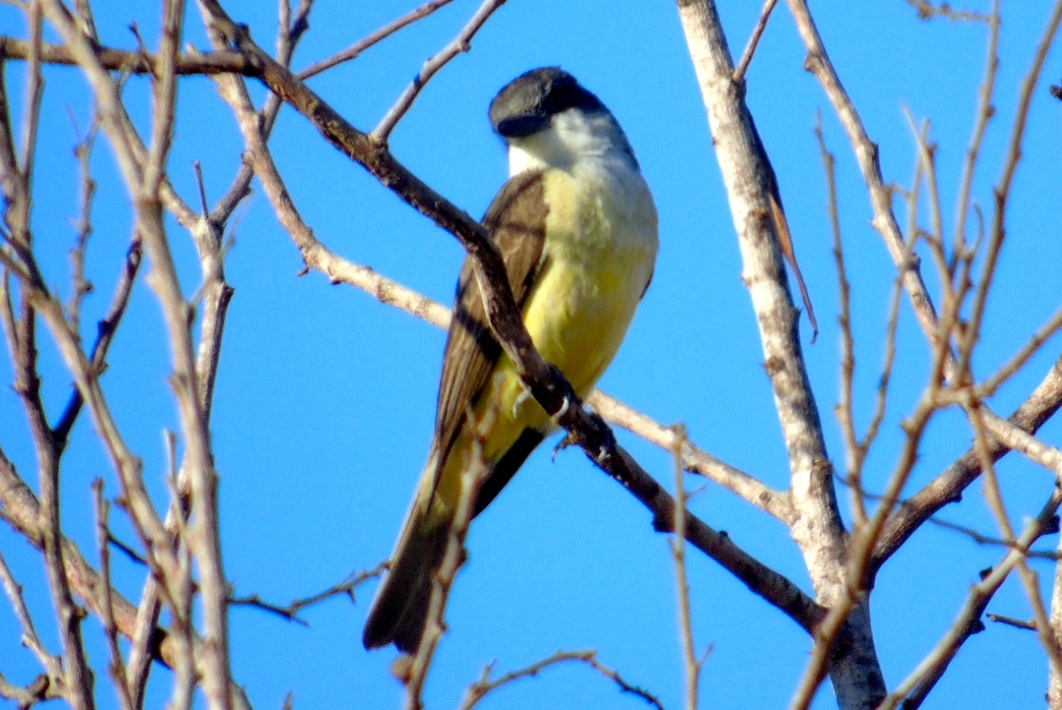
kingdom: Animalia
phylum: Chordata
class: Aves
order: Passeriformes
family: Tyrannidae
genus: Tyrannus
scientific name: Tyrannus crassirostris
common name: Thick-billed kingbird
